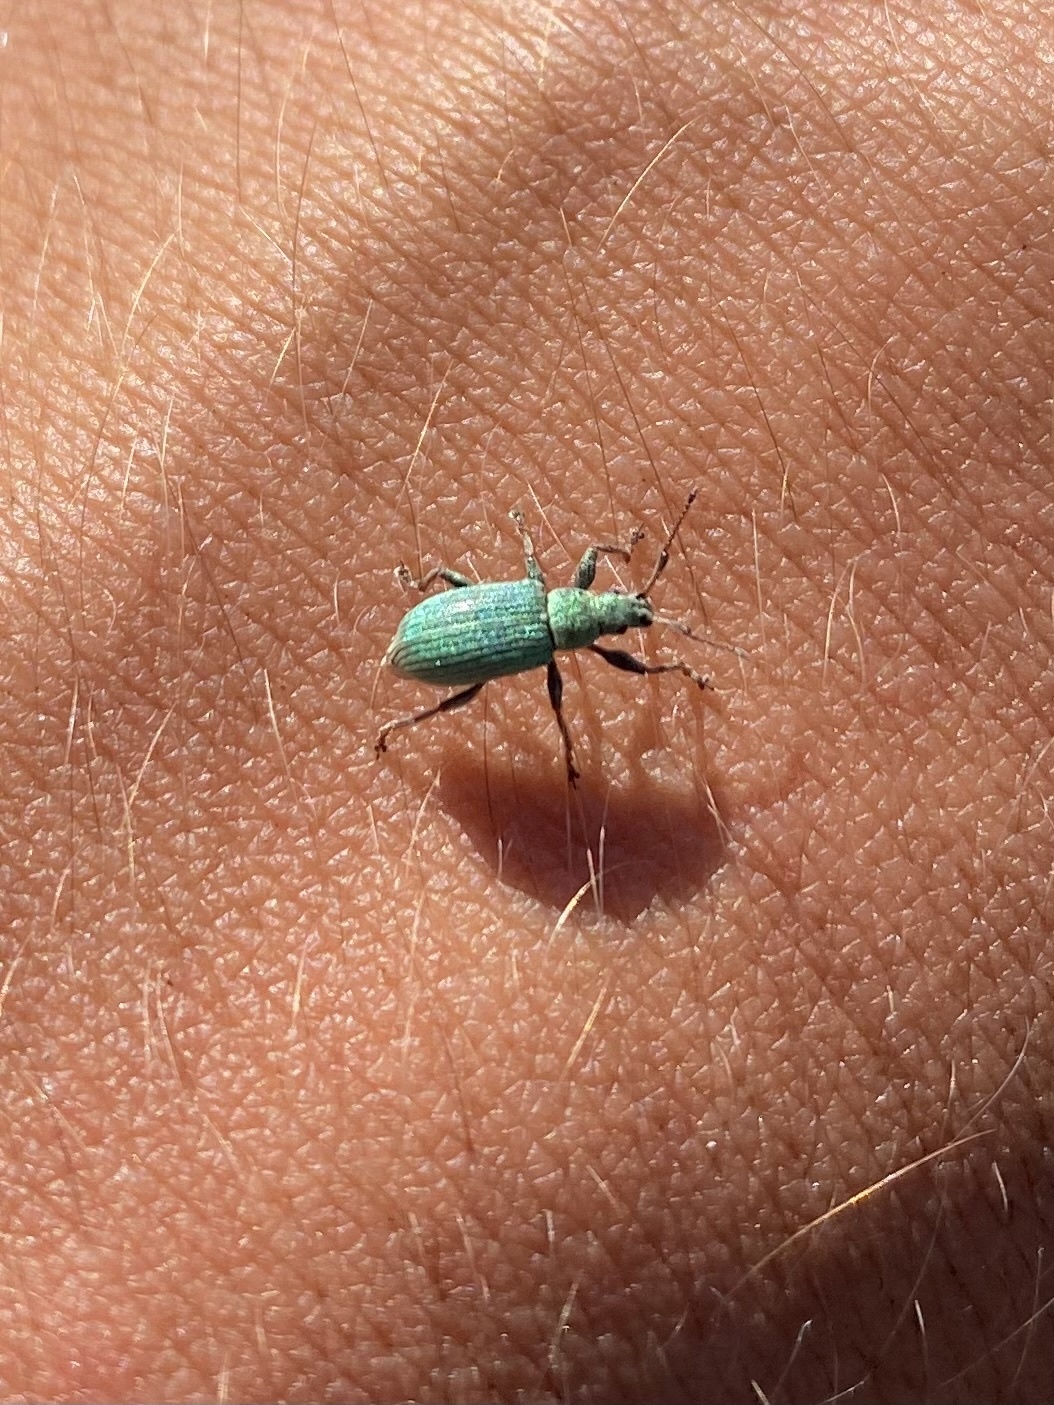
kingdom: Animalia
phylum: Arthropoda
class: Insecta
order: Coleoptera
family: Curculionidae
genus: Phyllobius
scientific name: Phyllobius maculicornis
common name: Green leaf weevil
